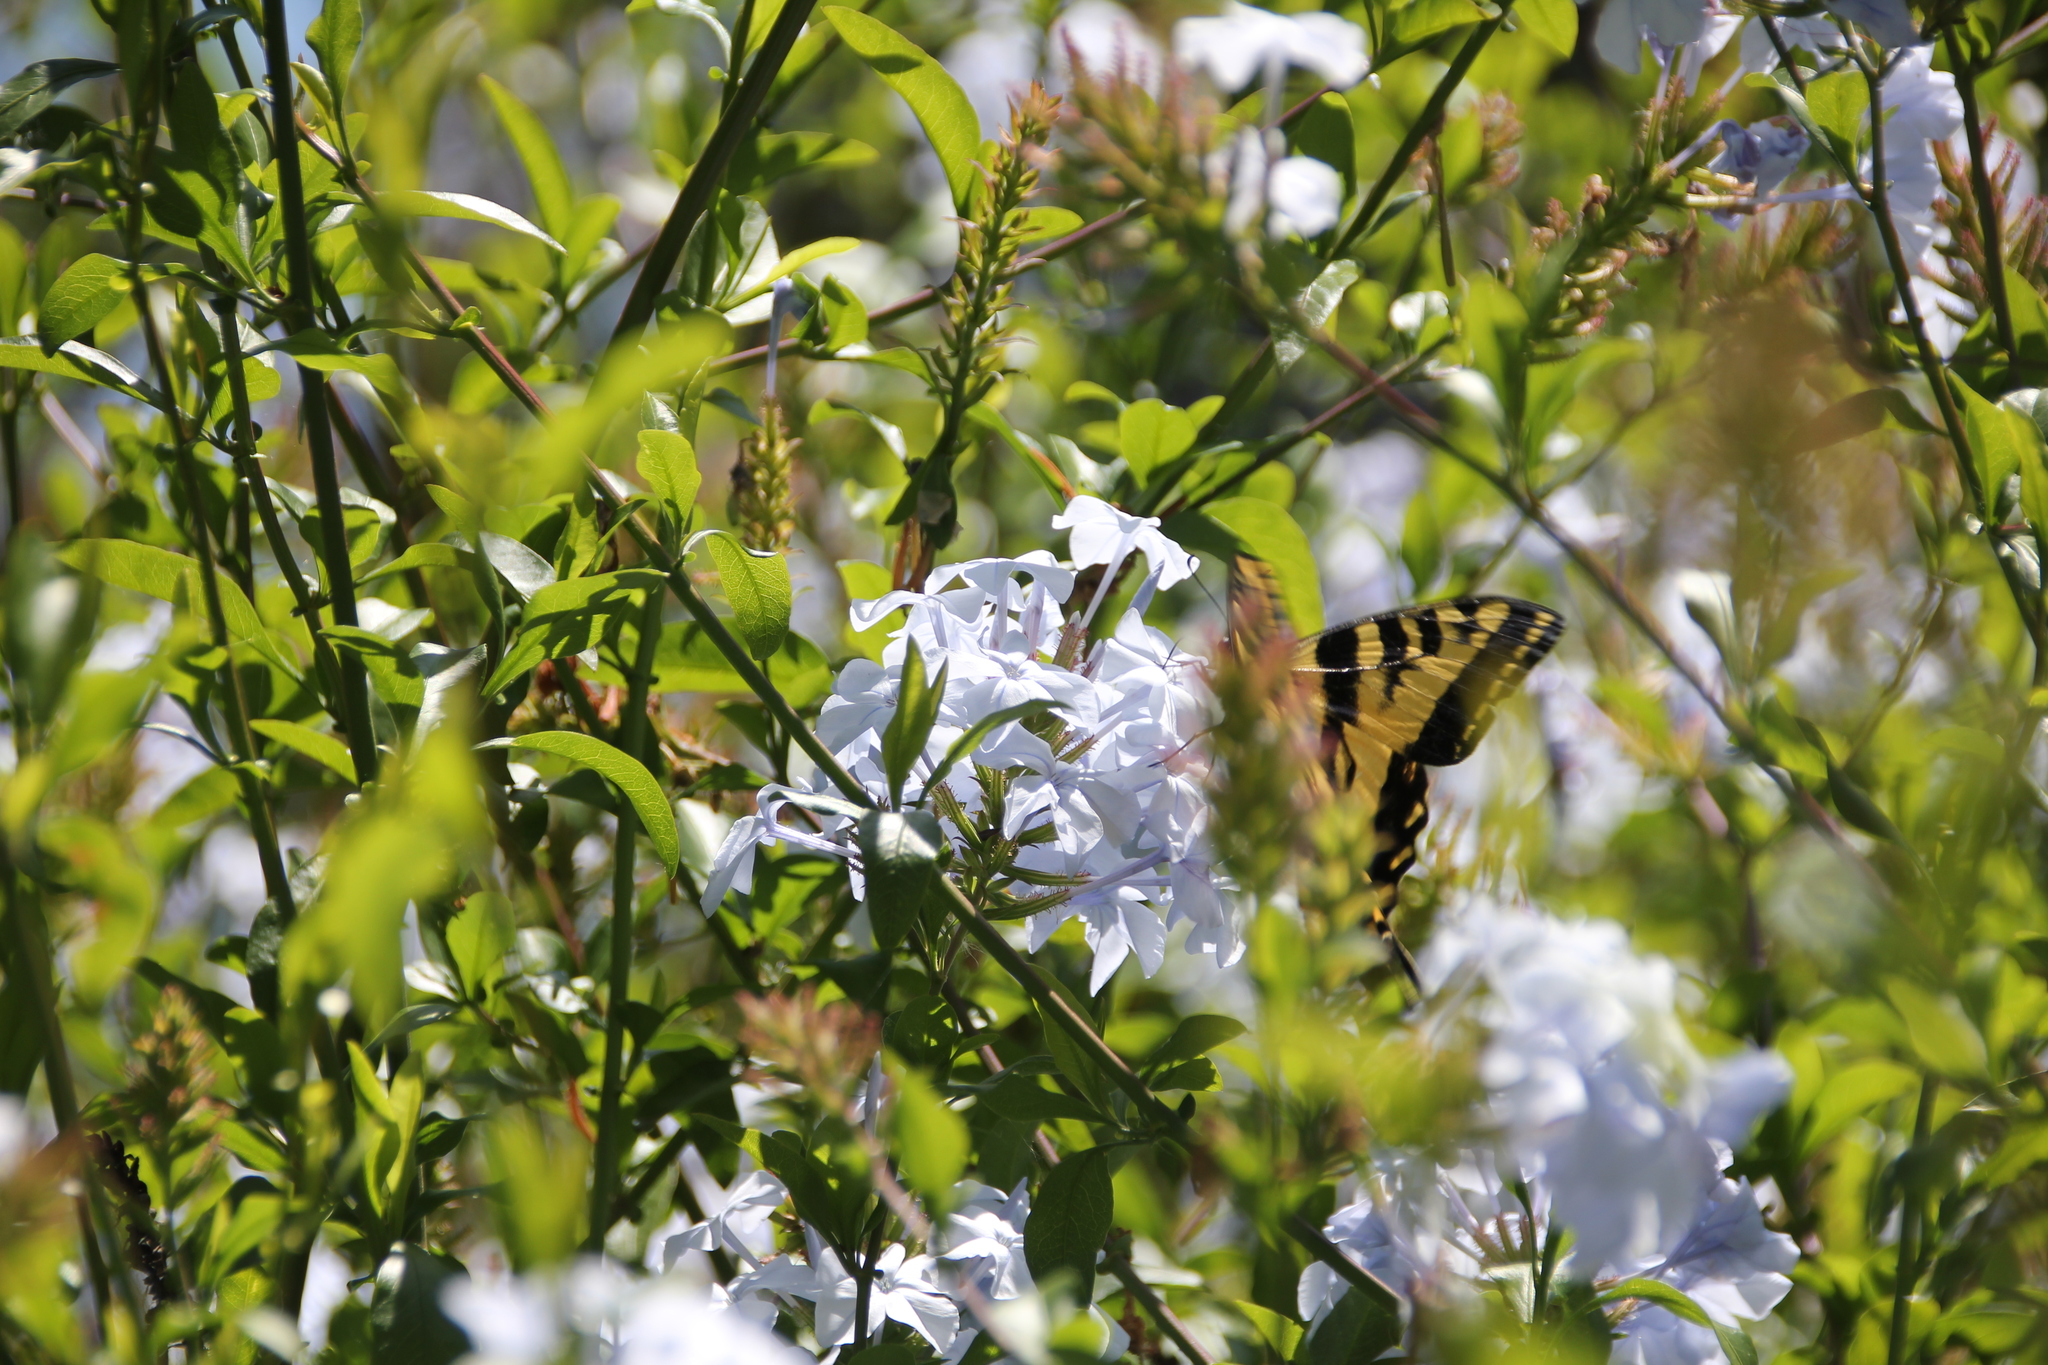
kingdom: Animalia
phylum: Arthropoda
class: Insecta
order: Lepidoptera
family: Papilionidae
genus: Papilio
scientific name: Papilio rutulus
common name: Western tiger swallowtail
